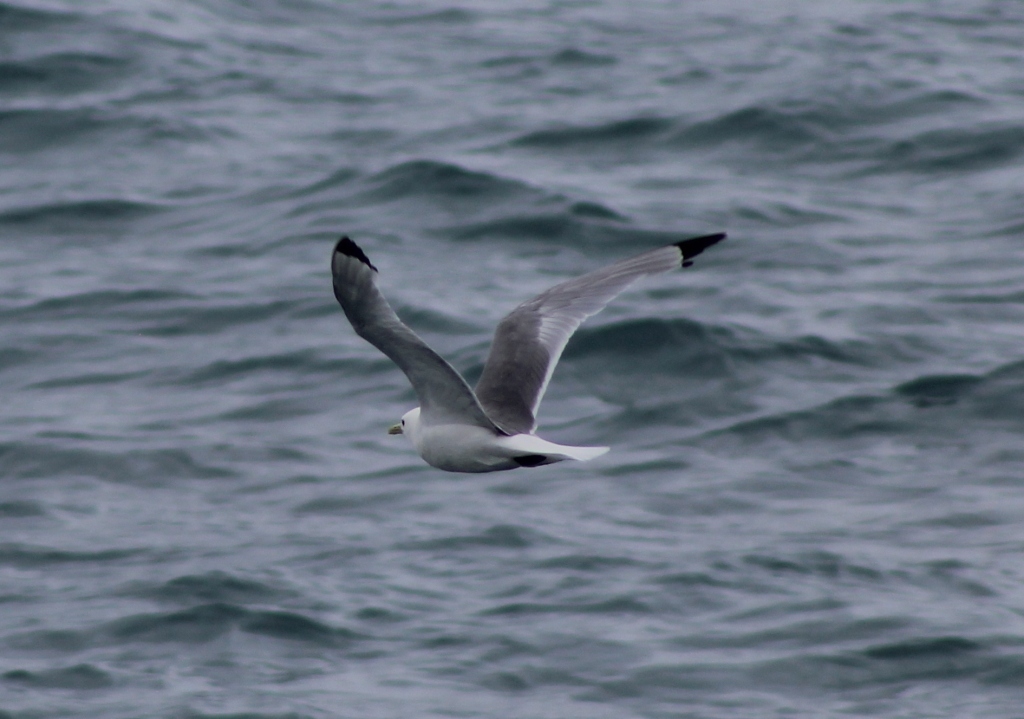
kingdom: Animalia
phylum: Chordata
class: Aves
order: Charadriiformes
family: Laridae
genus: Rissa
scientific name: Rissa tridactyla
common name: Black-legged kittiwake
